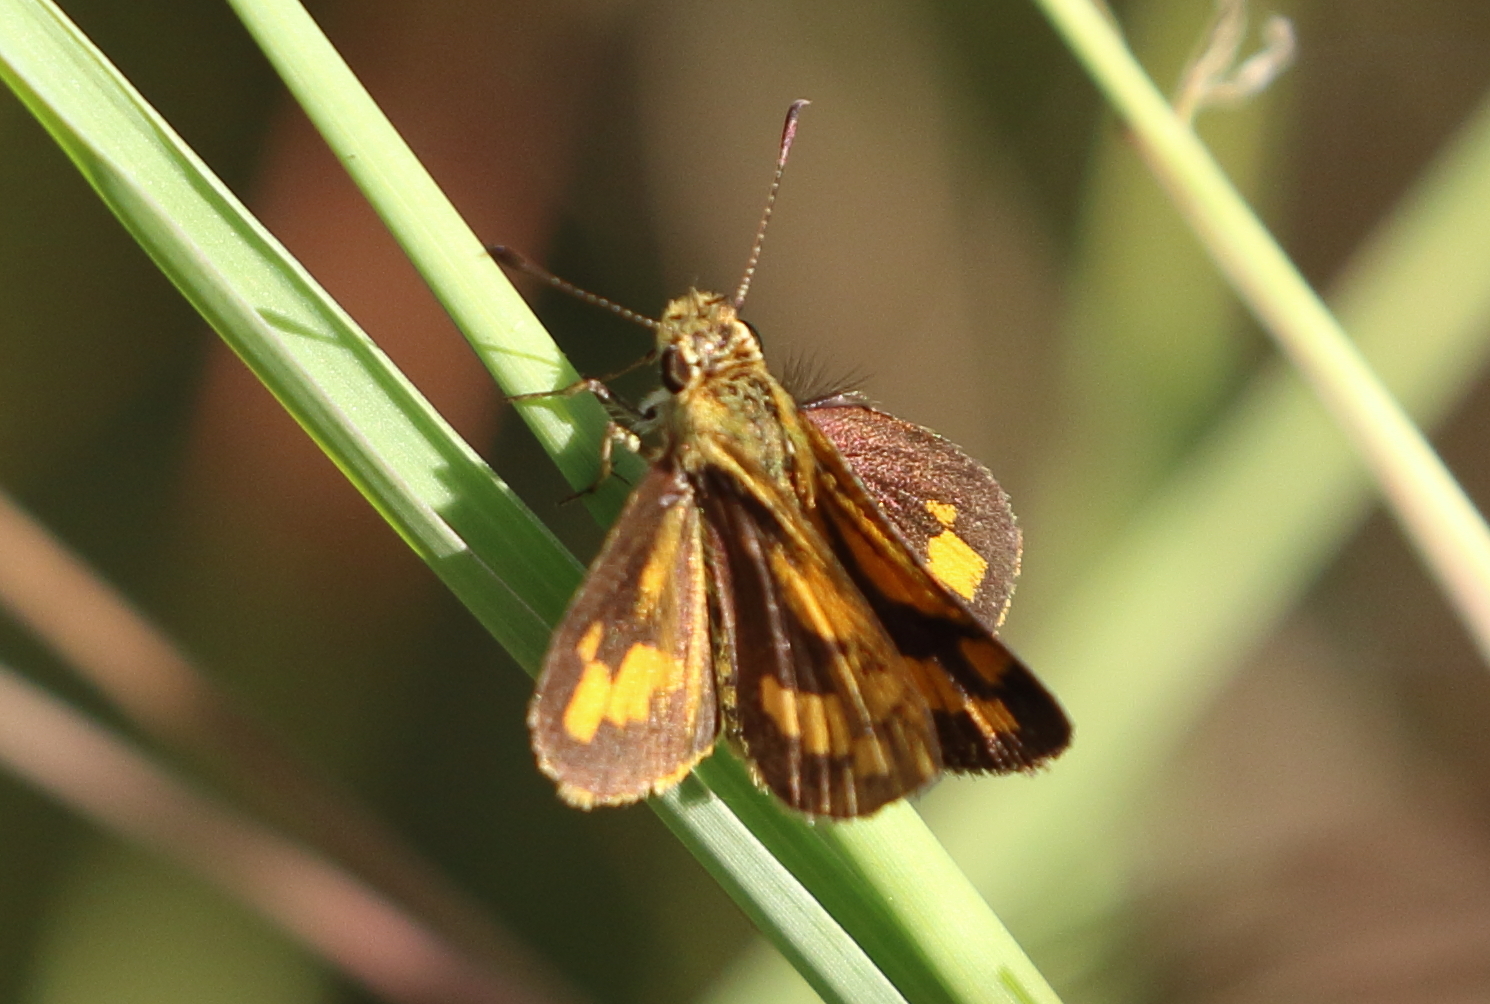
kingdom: Animalia
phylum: Arthropoda
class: Insecta
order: Lepidoptera
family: Hesperiidae
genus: Ocybadistes
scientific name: Ocybadistes walkeri
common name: Yellow-banded dart
